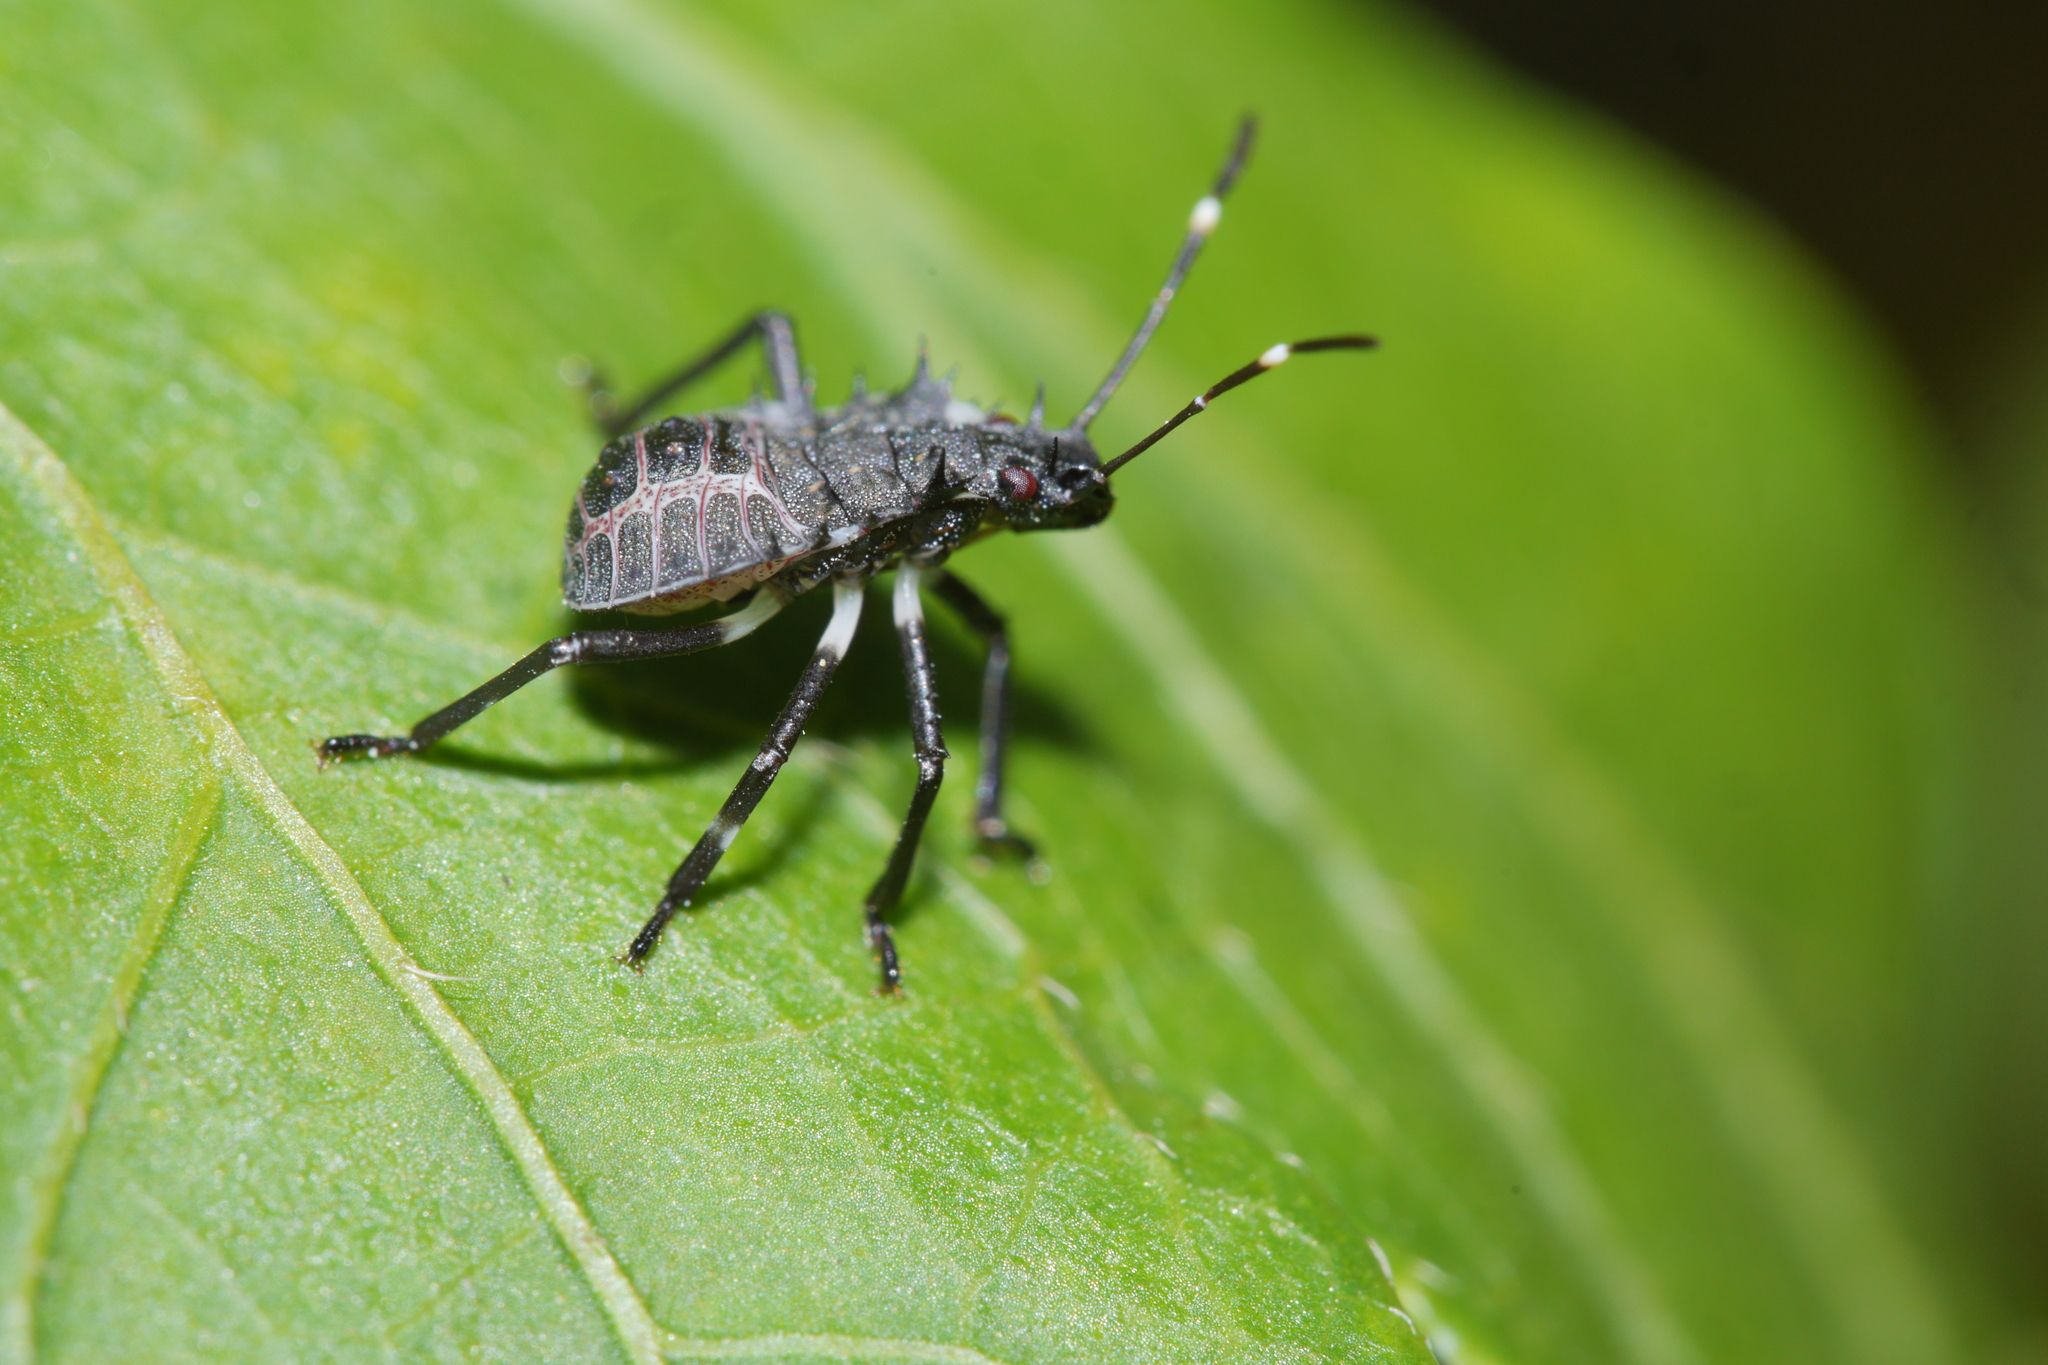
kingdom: Animalia
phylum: Arthropoda
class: Insecta
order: Hemiptera
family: Pentatomidae
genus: Halyomorpha
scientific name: Halyomorpha halys
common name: Brown marmorated stink bug
